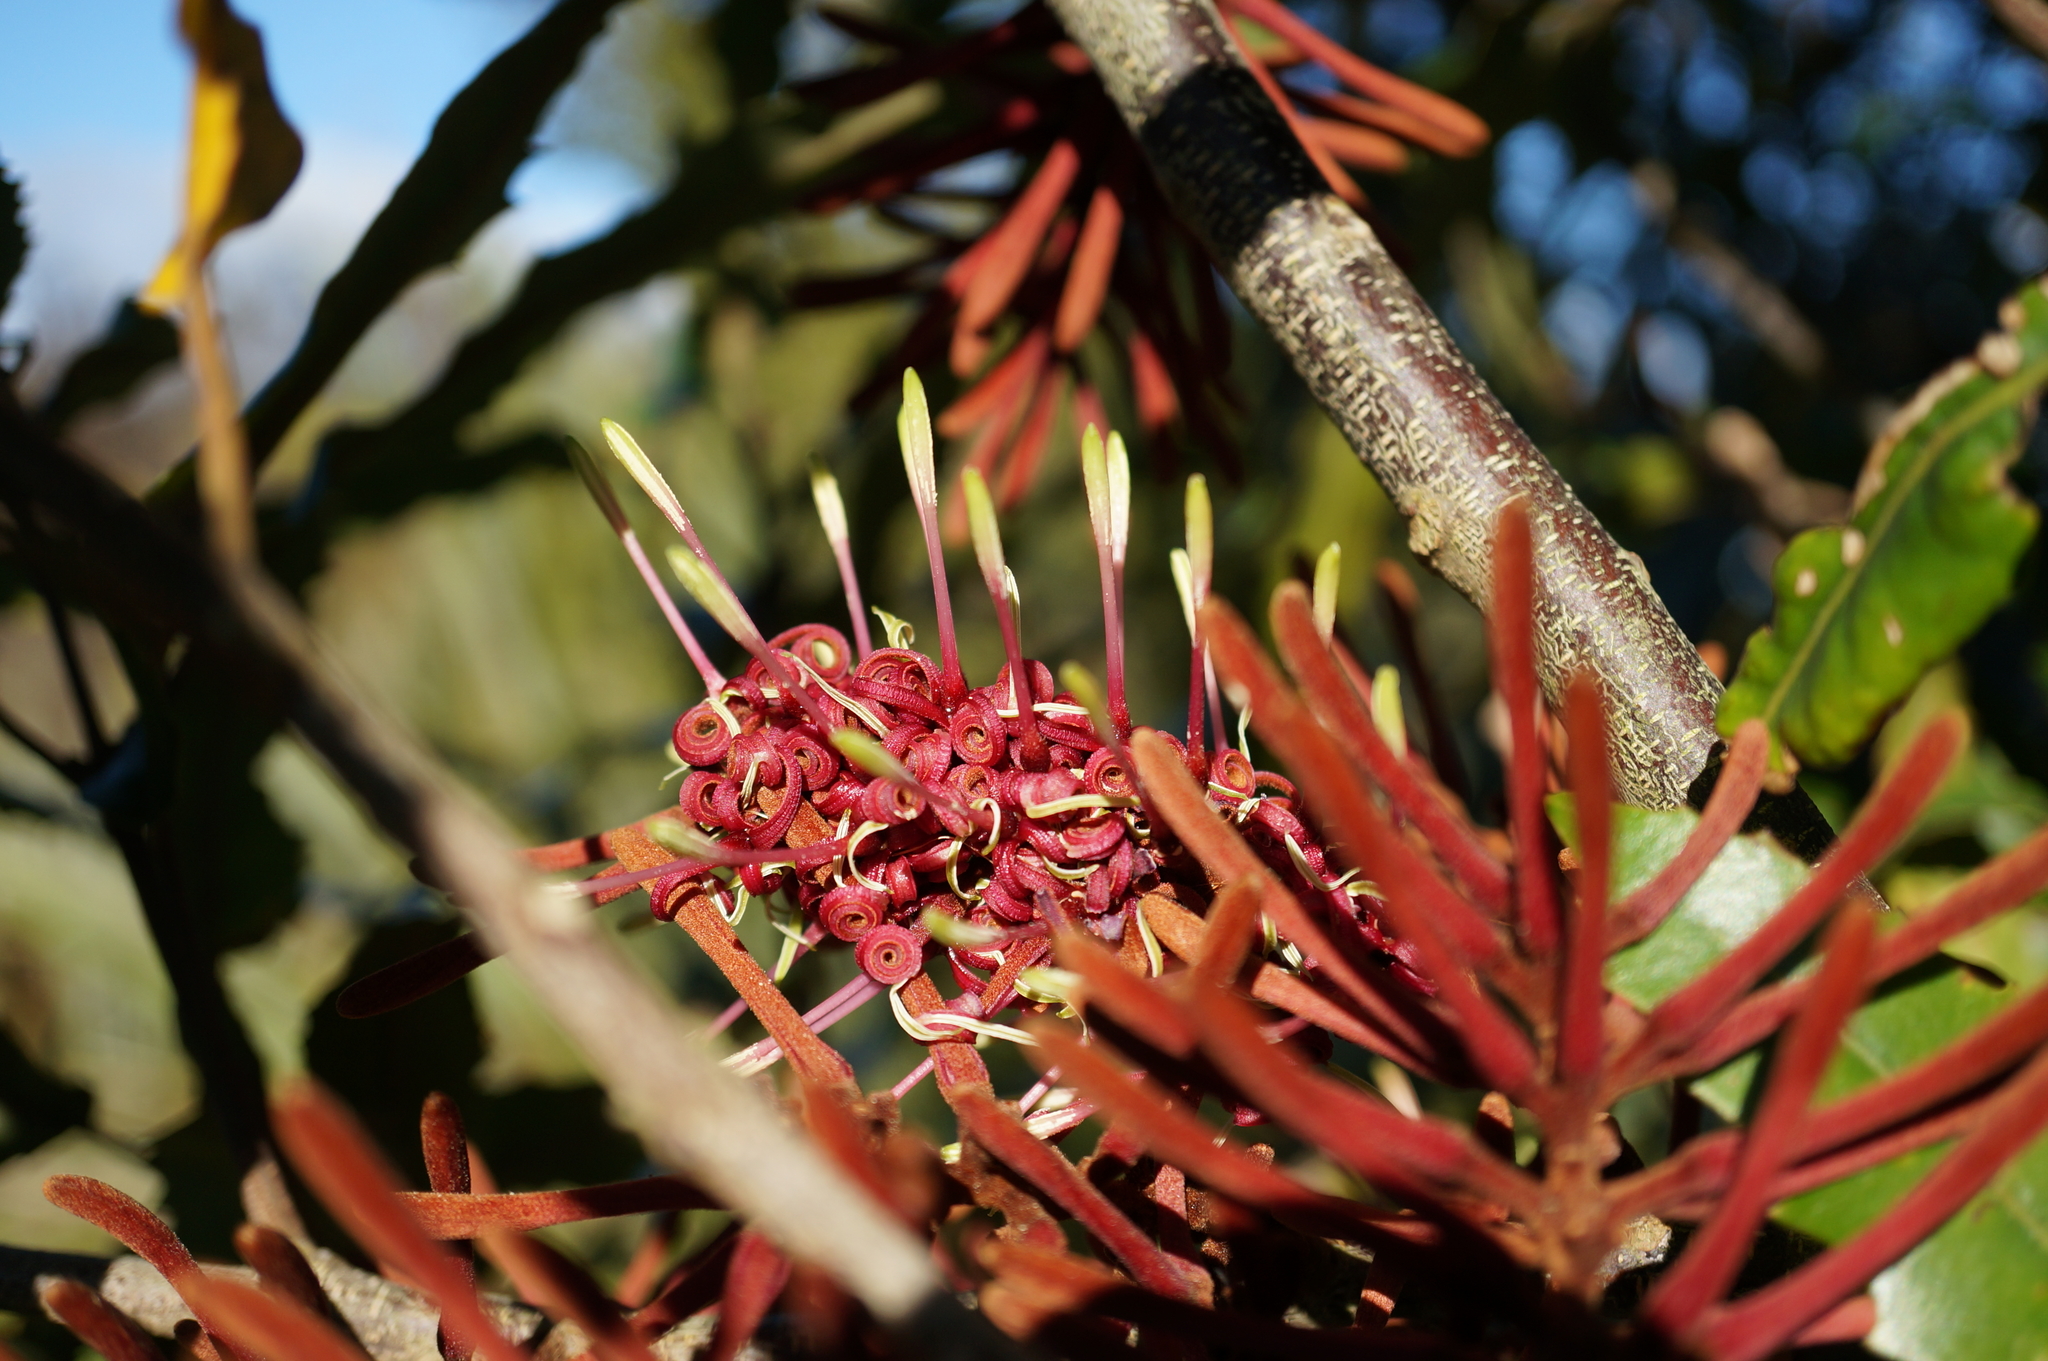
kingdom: Plantae
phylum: Tracheophyta
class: Magnoliopsida
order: Proteales
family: Proteaceae
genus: Knightia
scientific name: Knightia excelsa
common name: New zealand-honeysuckle
